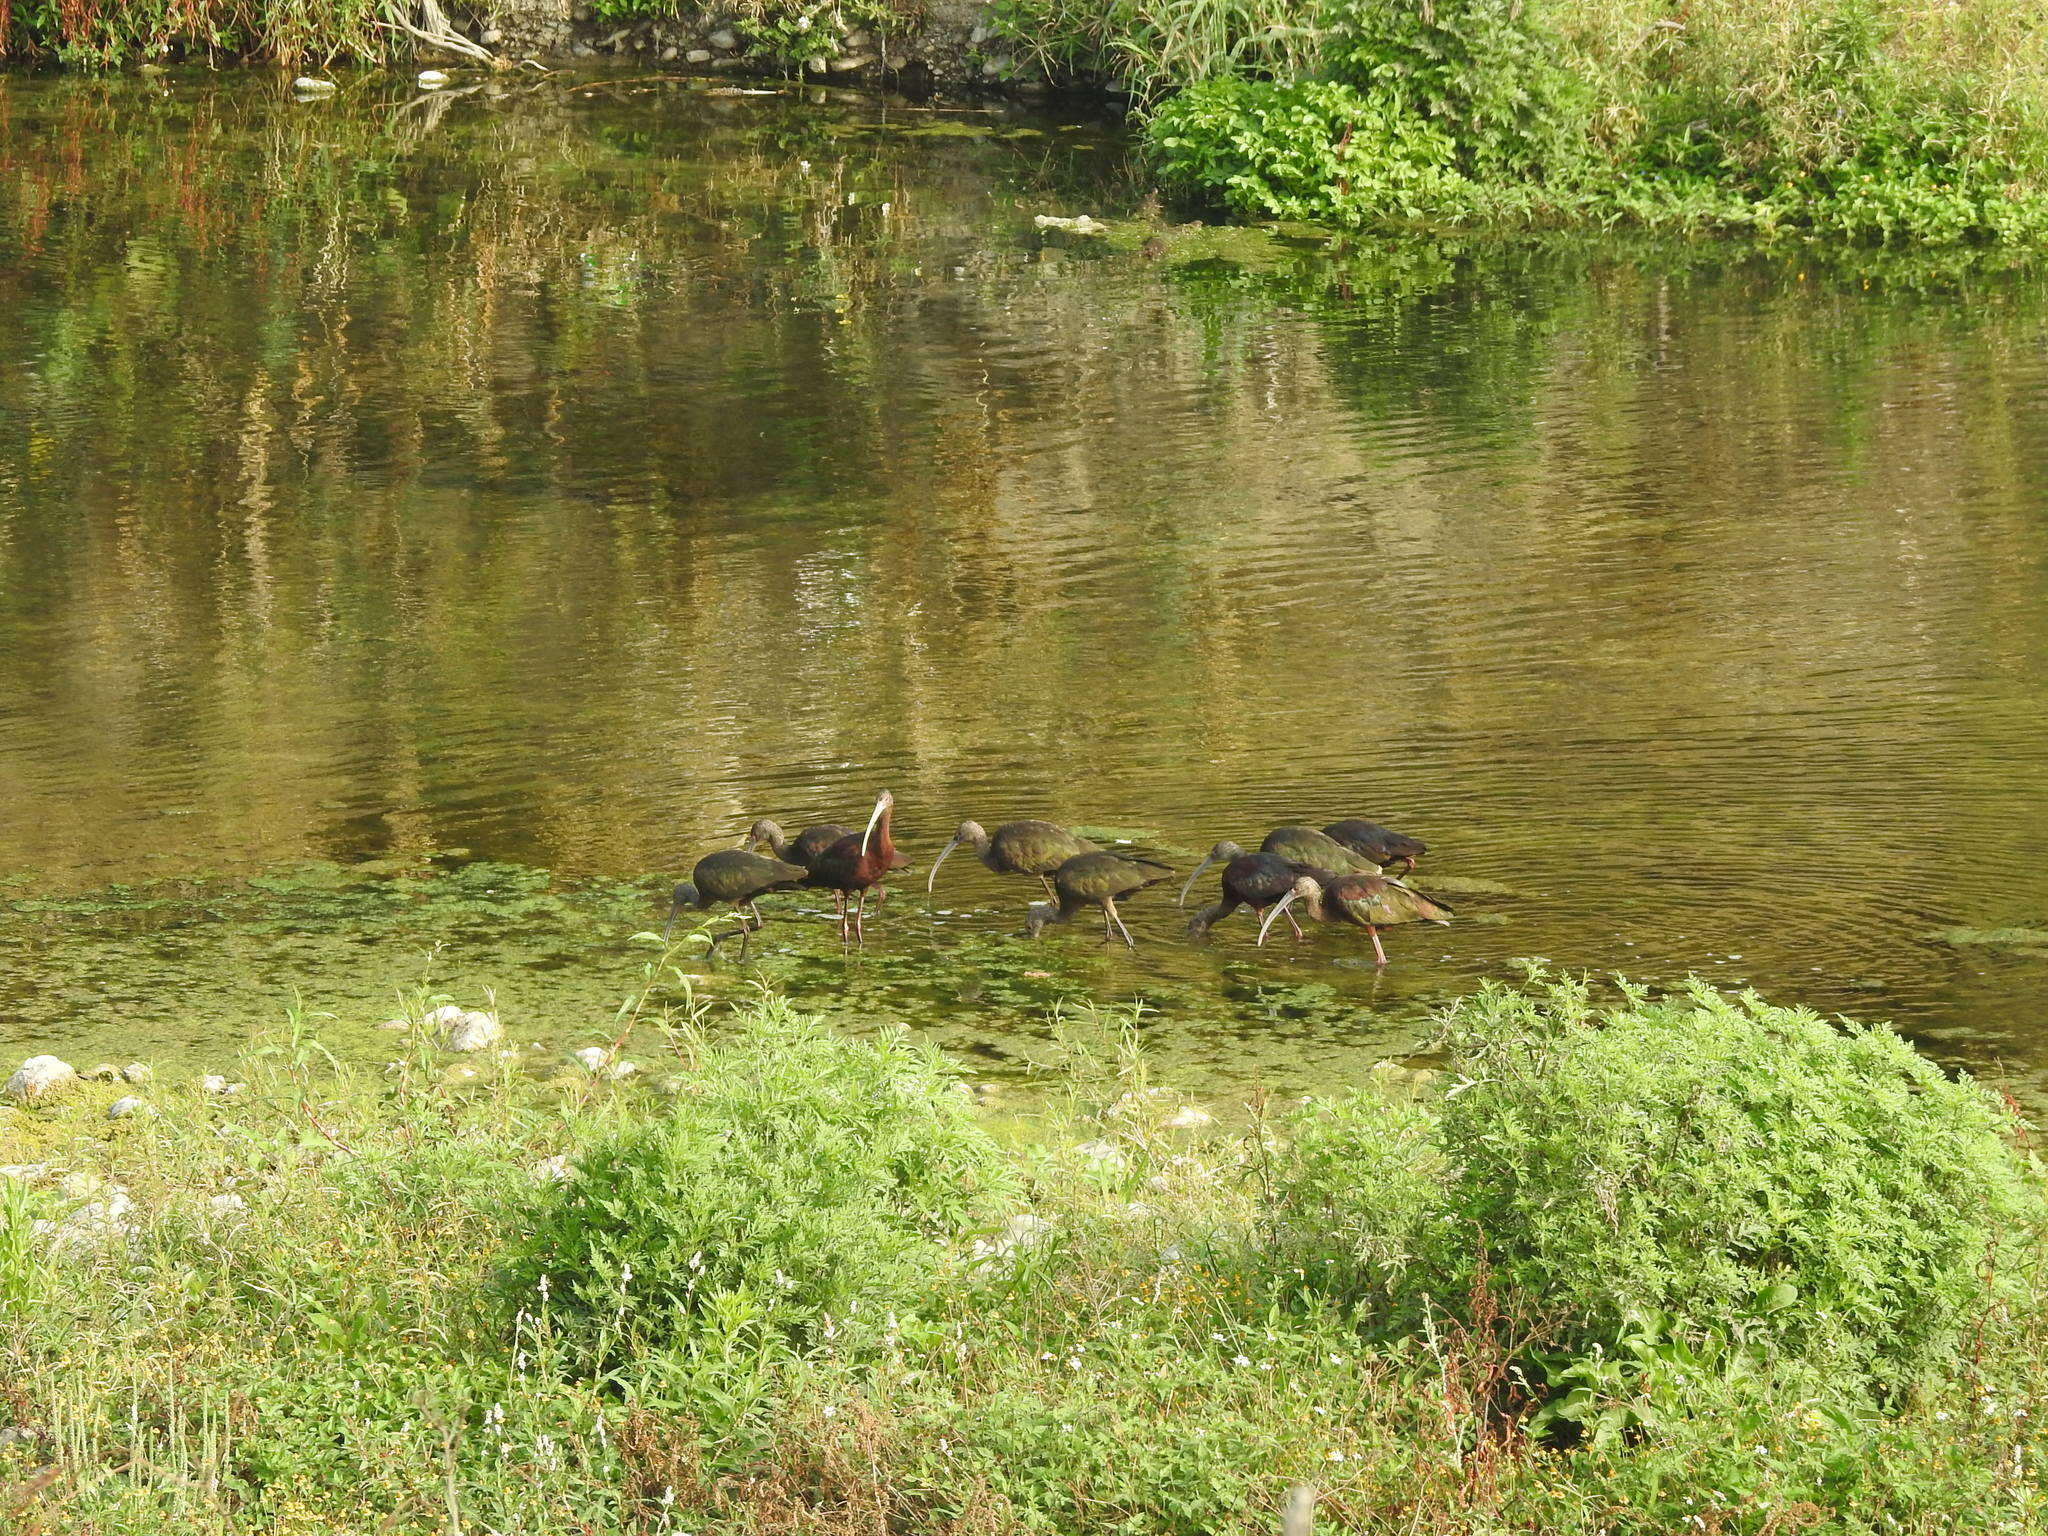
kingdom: Animalia
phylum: Chordata
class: Aves
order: Pelecaniformes
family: Threskiornithidae
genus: Plegadis
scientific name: Plegadis chihi
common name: White-faced ibis
